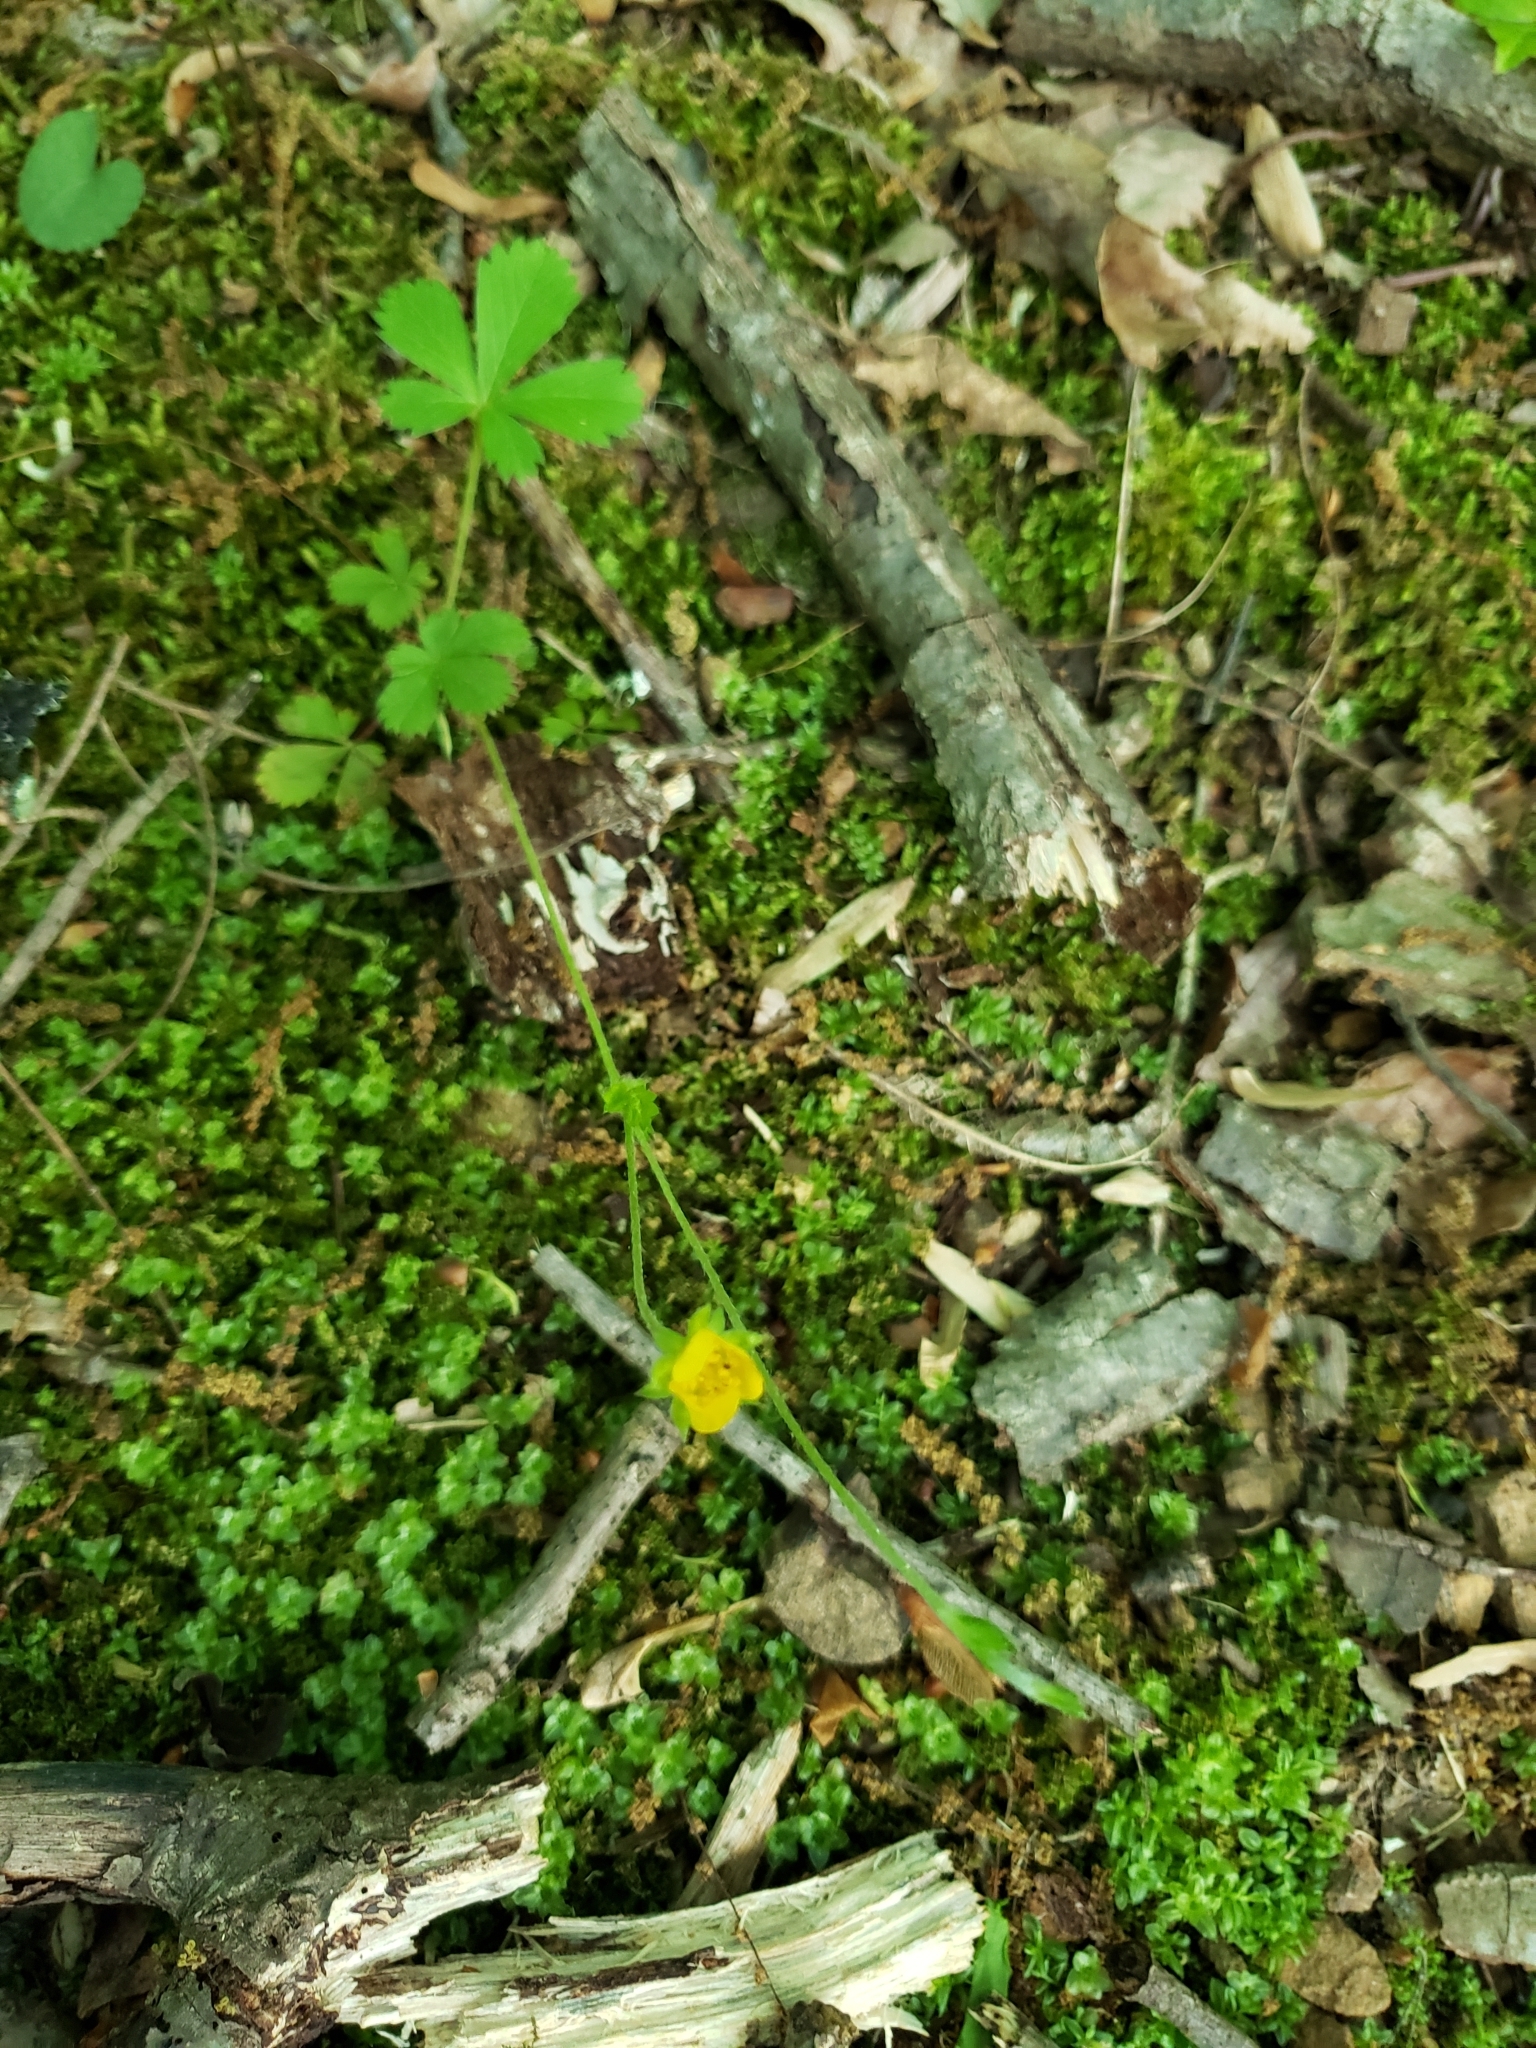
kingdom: Plantae
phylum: Tracheophyta
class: Magnoliopsida
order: Rosales
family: Rosaceae
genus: Potentilla
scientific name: Potentilla canadensis
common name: Canada cinquefoil
